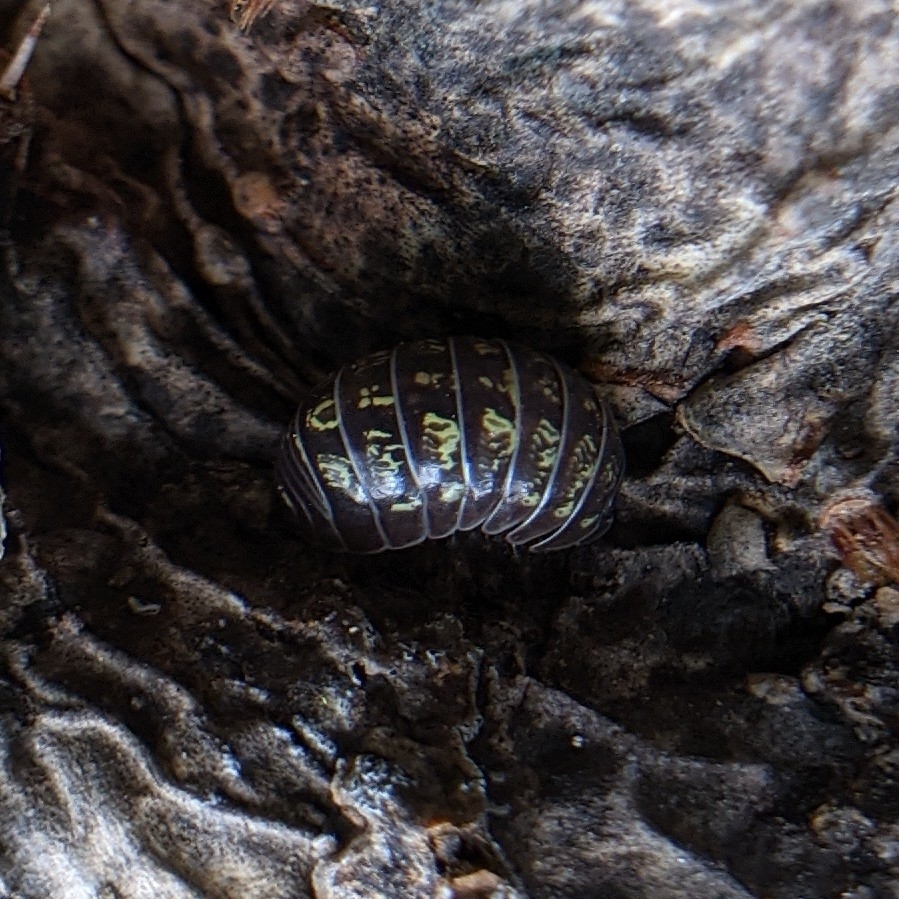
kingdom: Animalia
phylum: Arthropoda
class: Malacostraca
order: Isopoda
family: Armadillidiidae
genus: Armadillidium
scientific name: Armadillidium vulgare
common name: Common pill woodlouse
